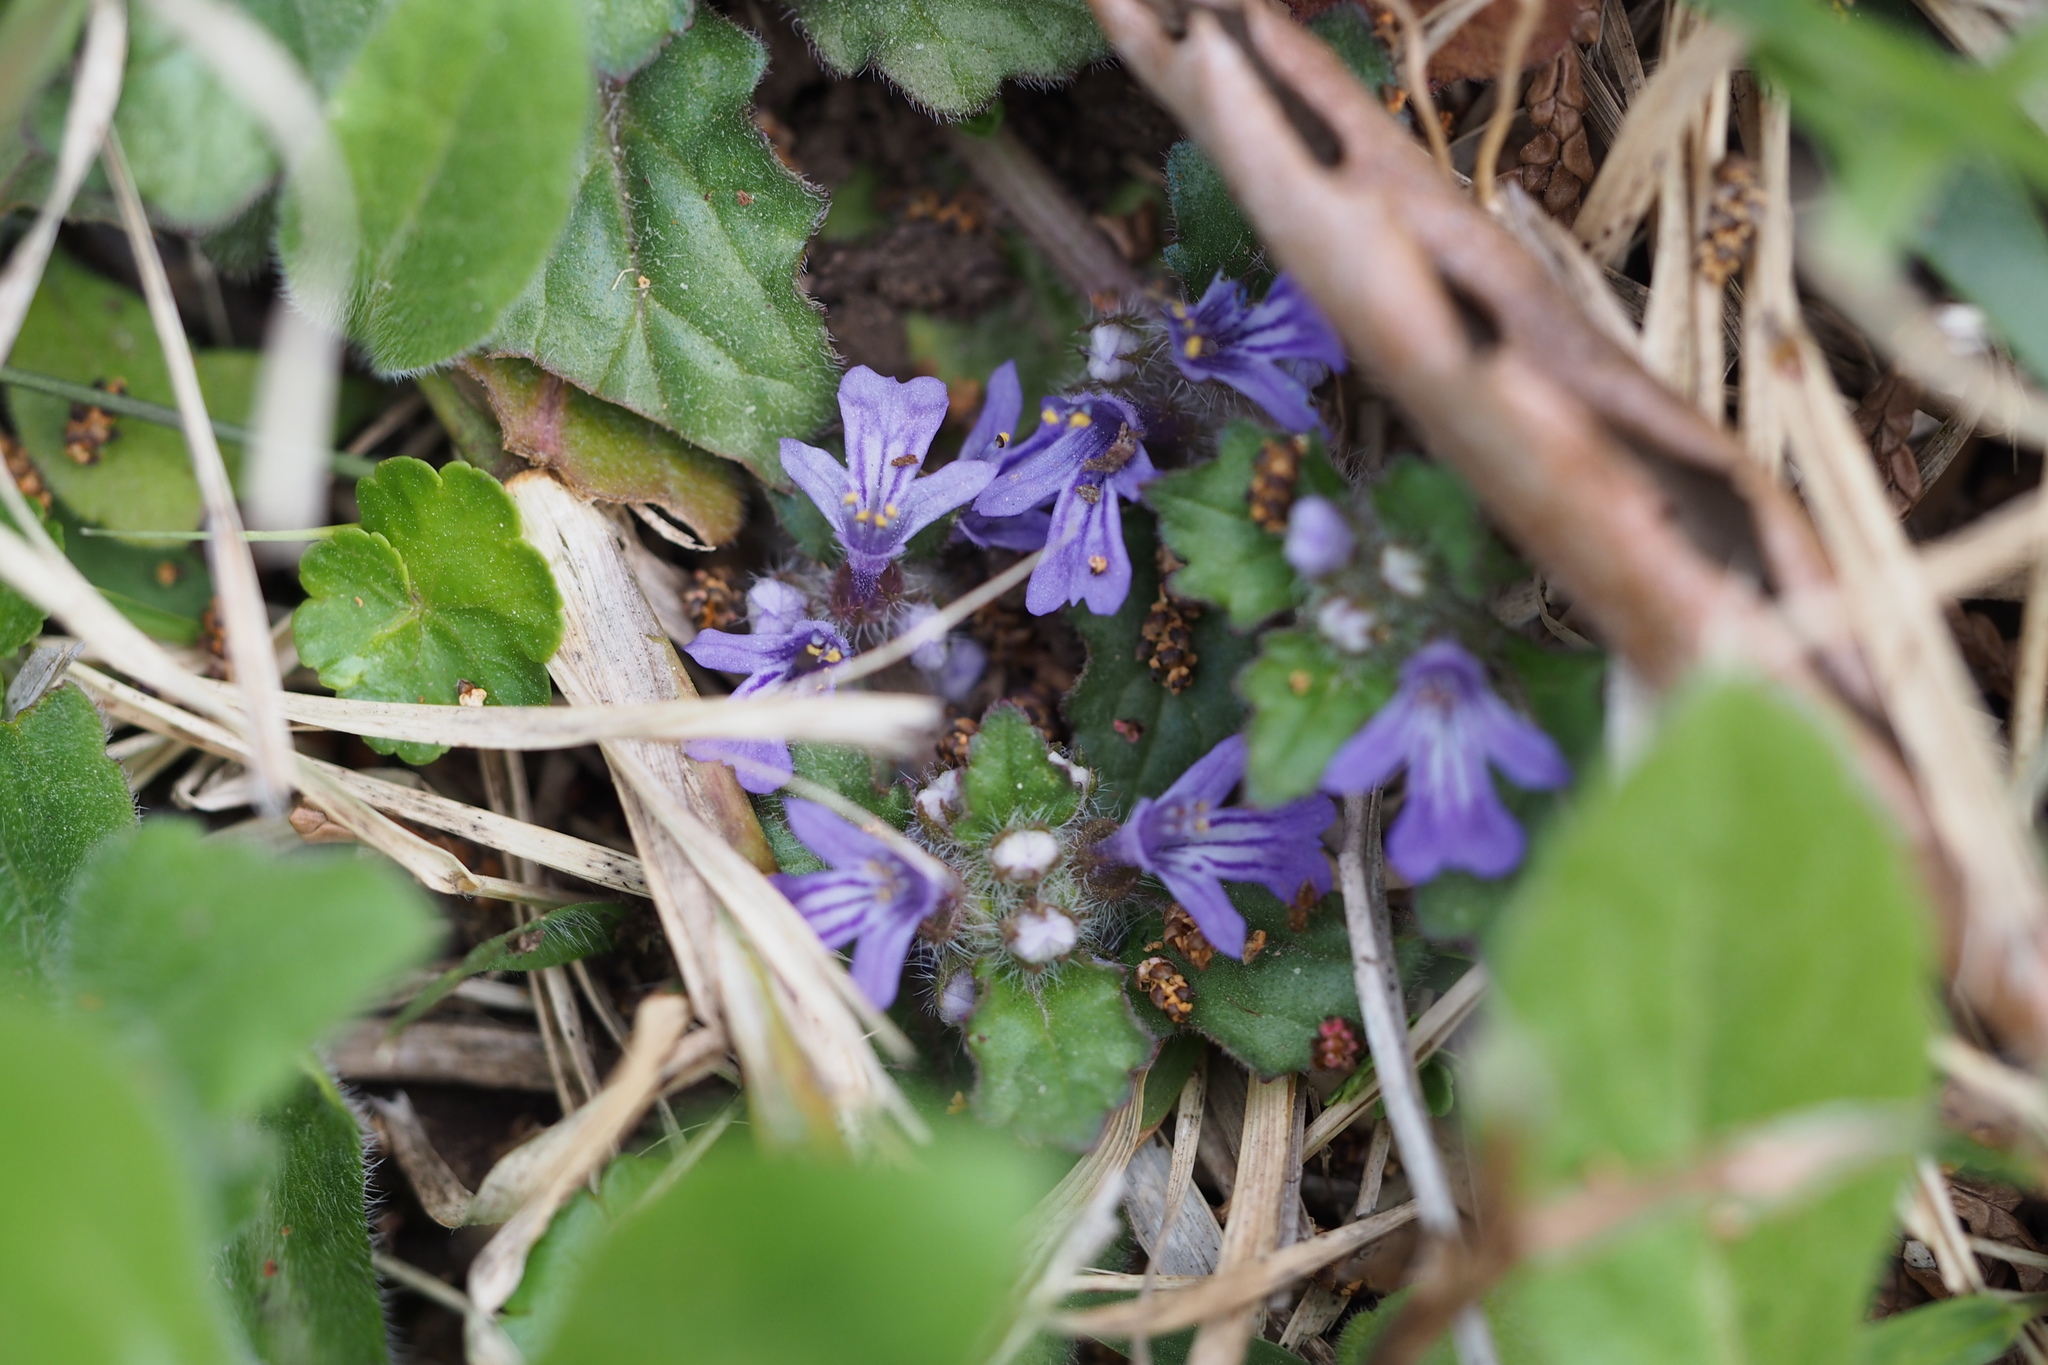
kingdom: Plantae
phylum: Tracheophyta
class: Magnoliopsida
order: Lamiales
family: Lamiaceae
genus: Ajuga
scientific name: Ajuga decumbens
